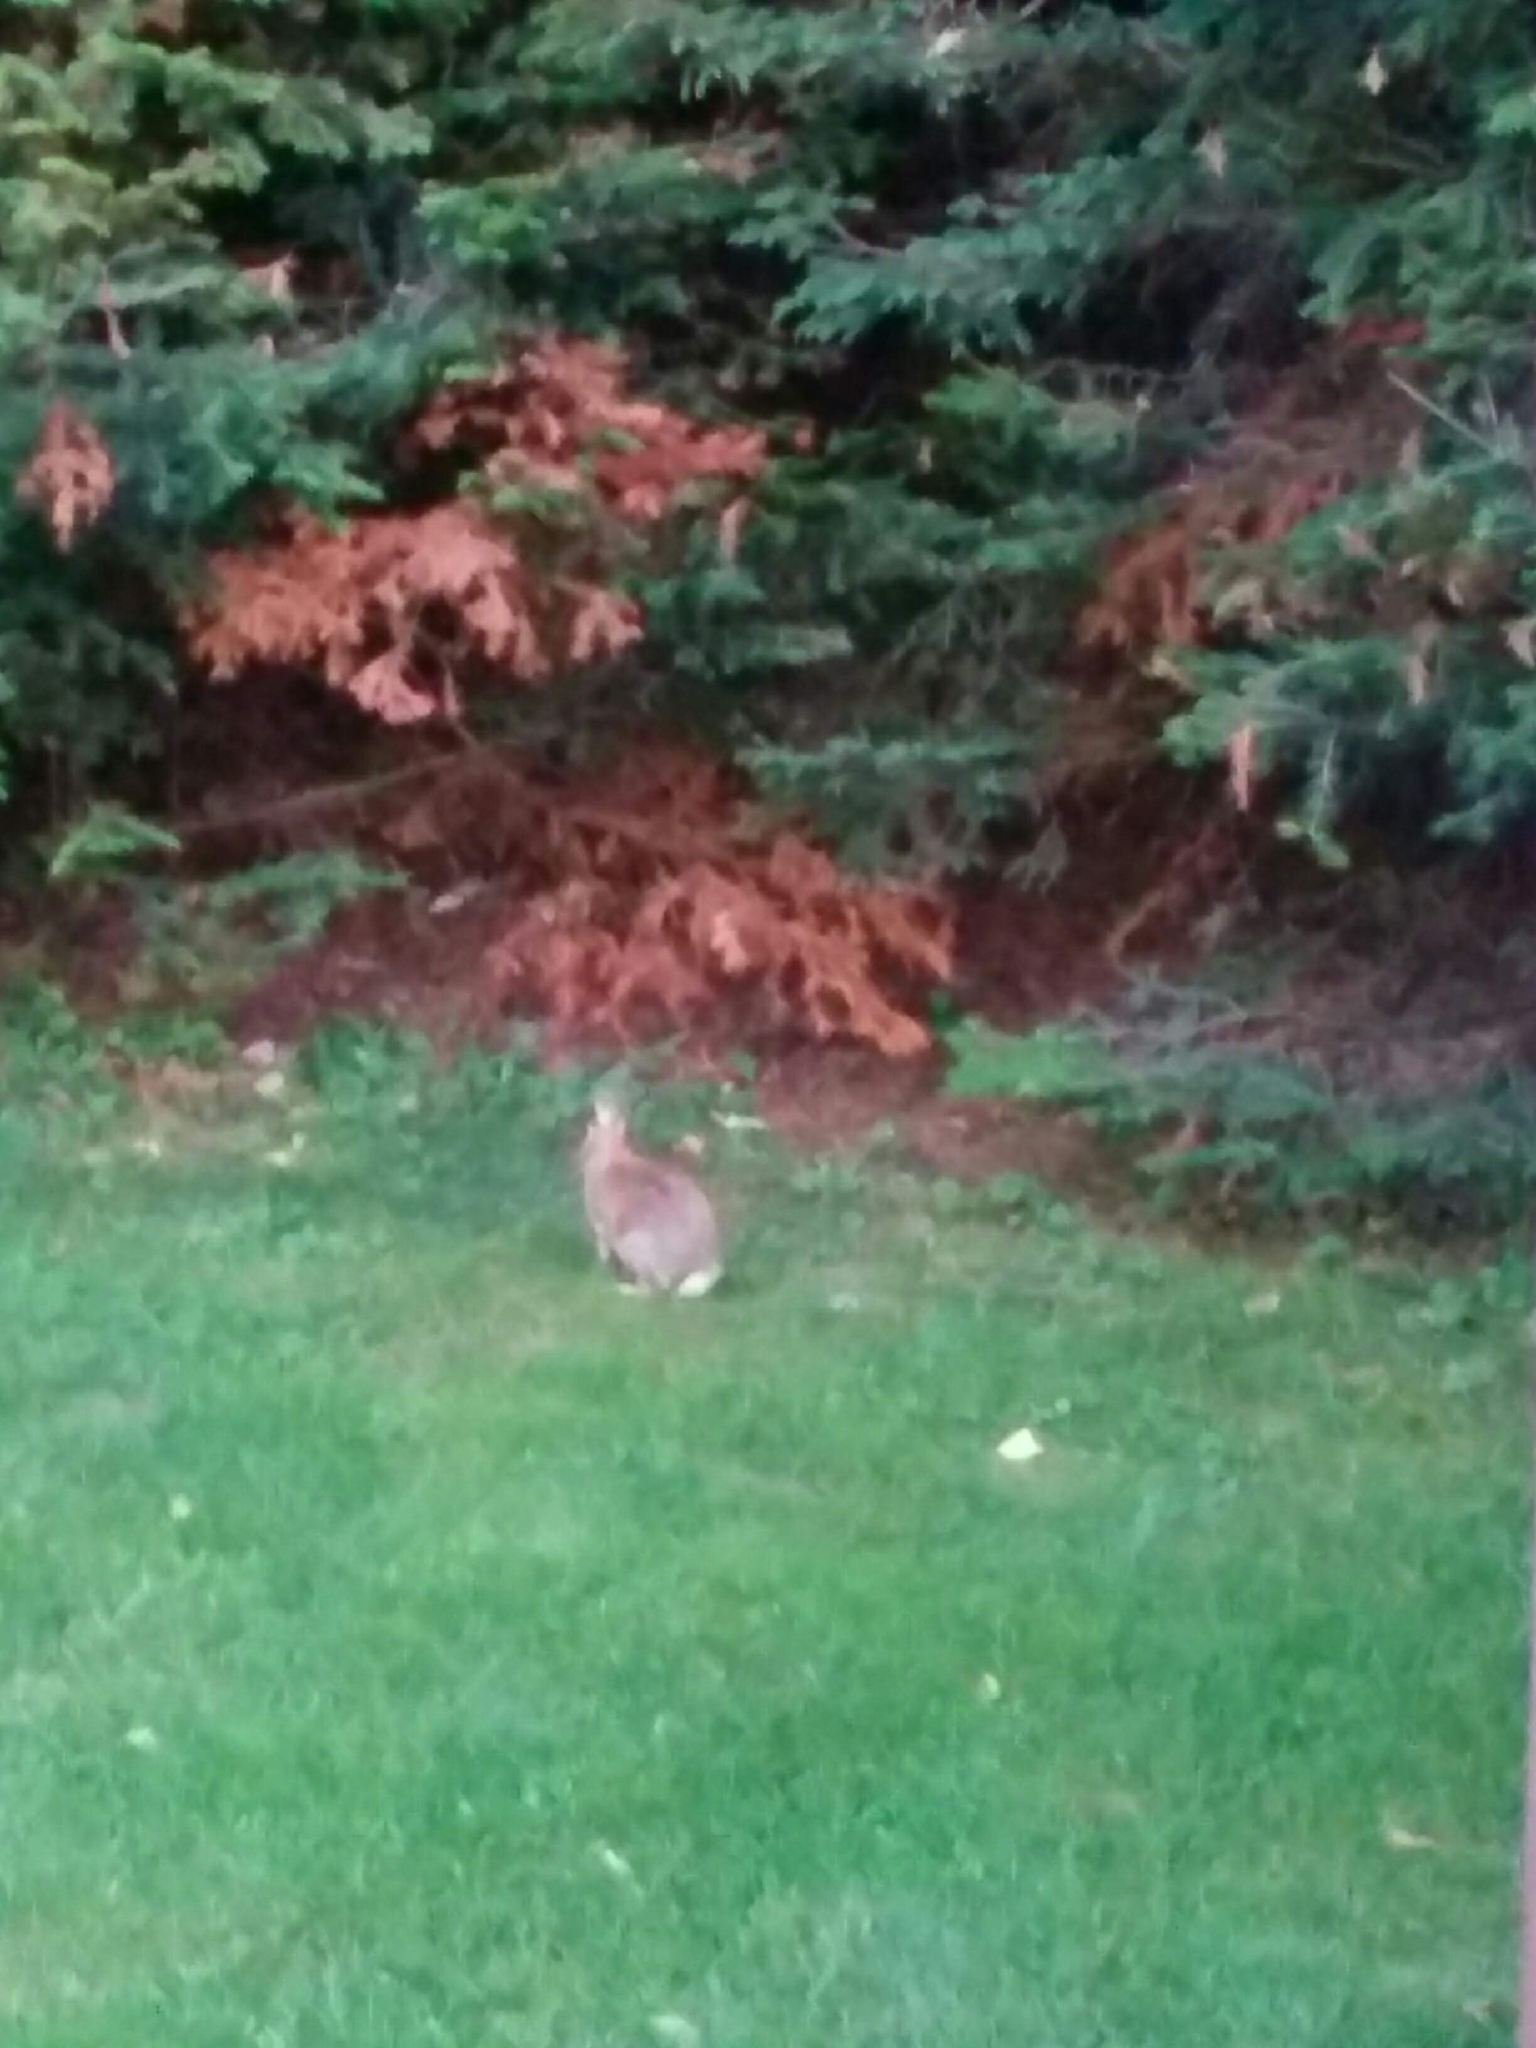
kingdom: Animalia
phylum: Chordata
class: Mammalia
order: Lagomorpha
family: Leporidae
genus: Sylvilagus
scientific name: Sylvilagus floridanus
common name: Eastern cottontail
